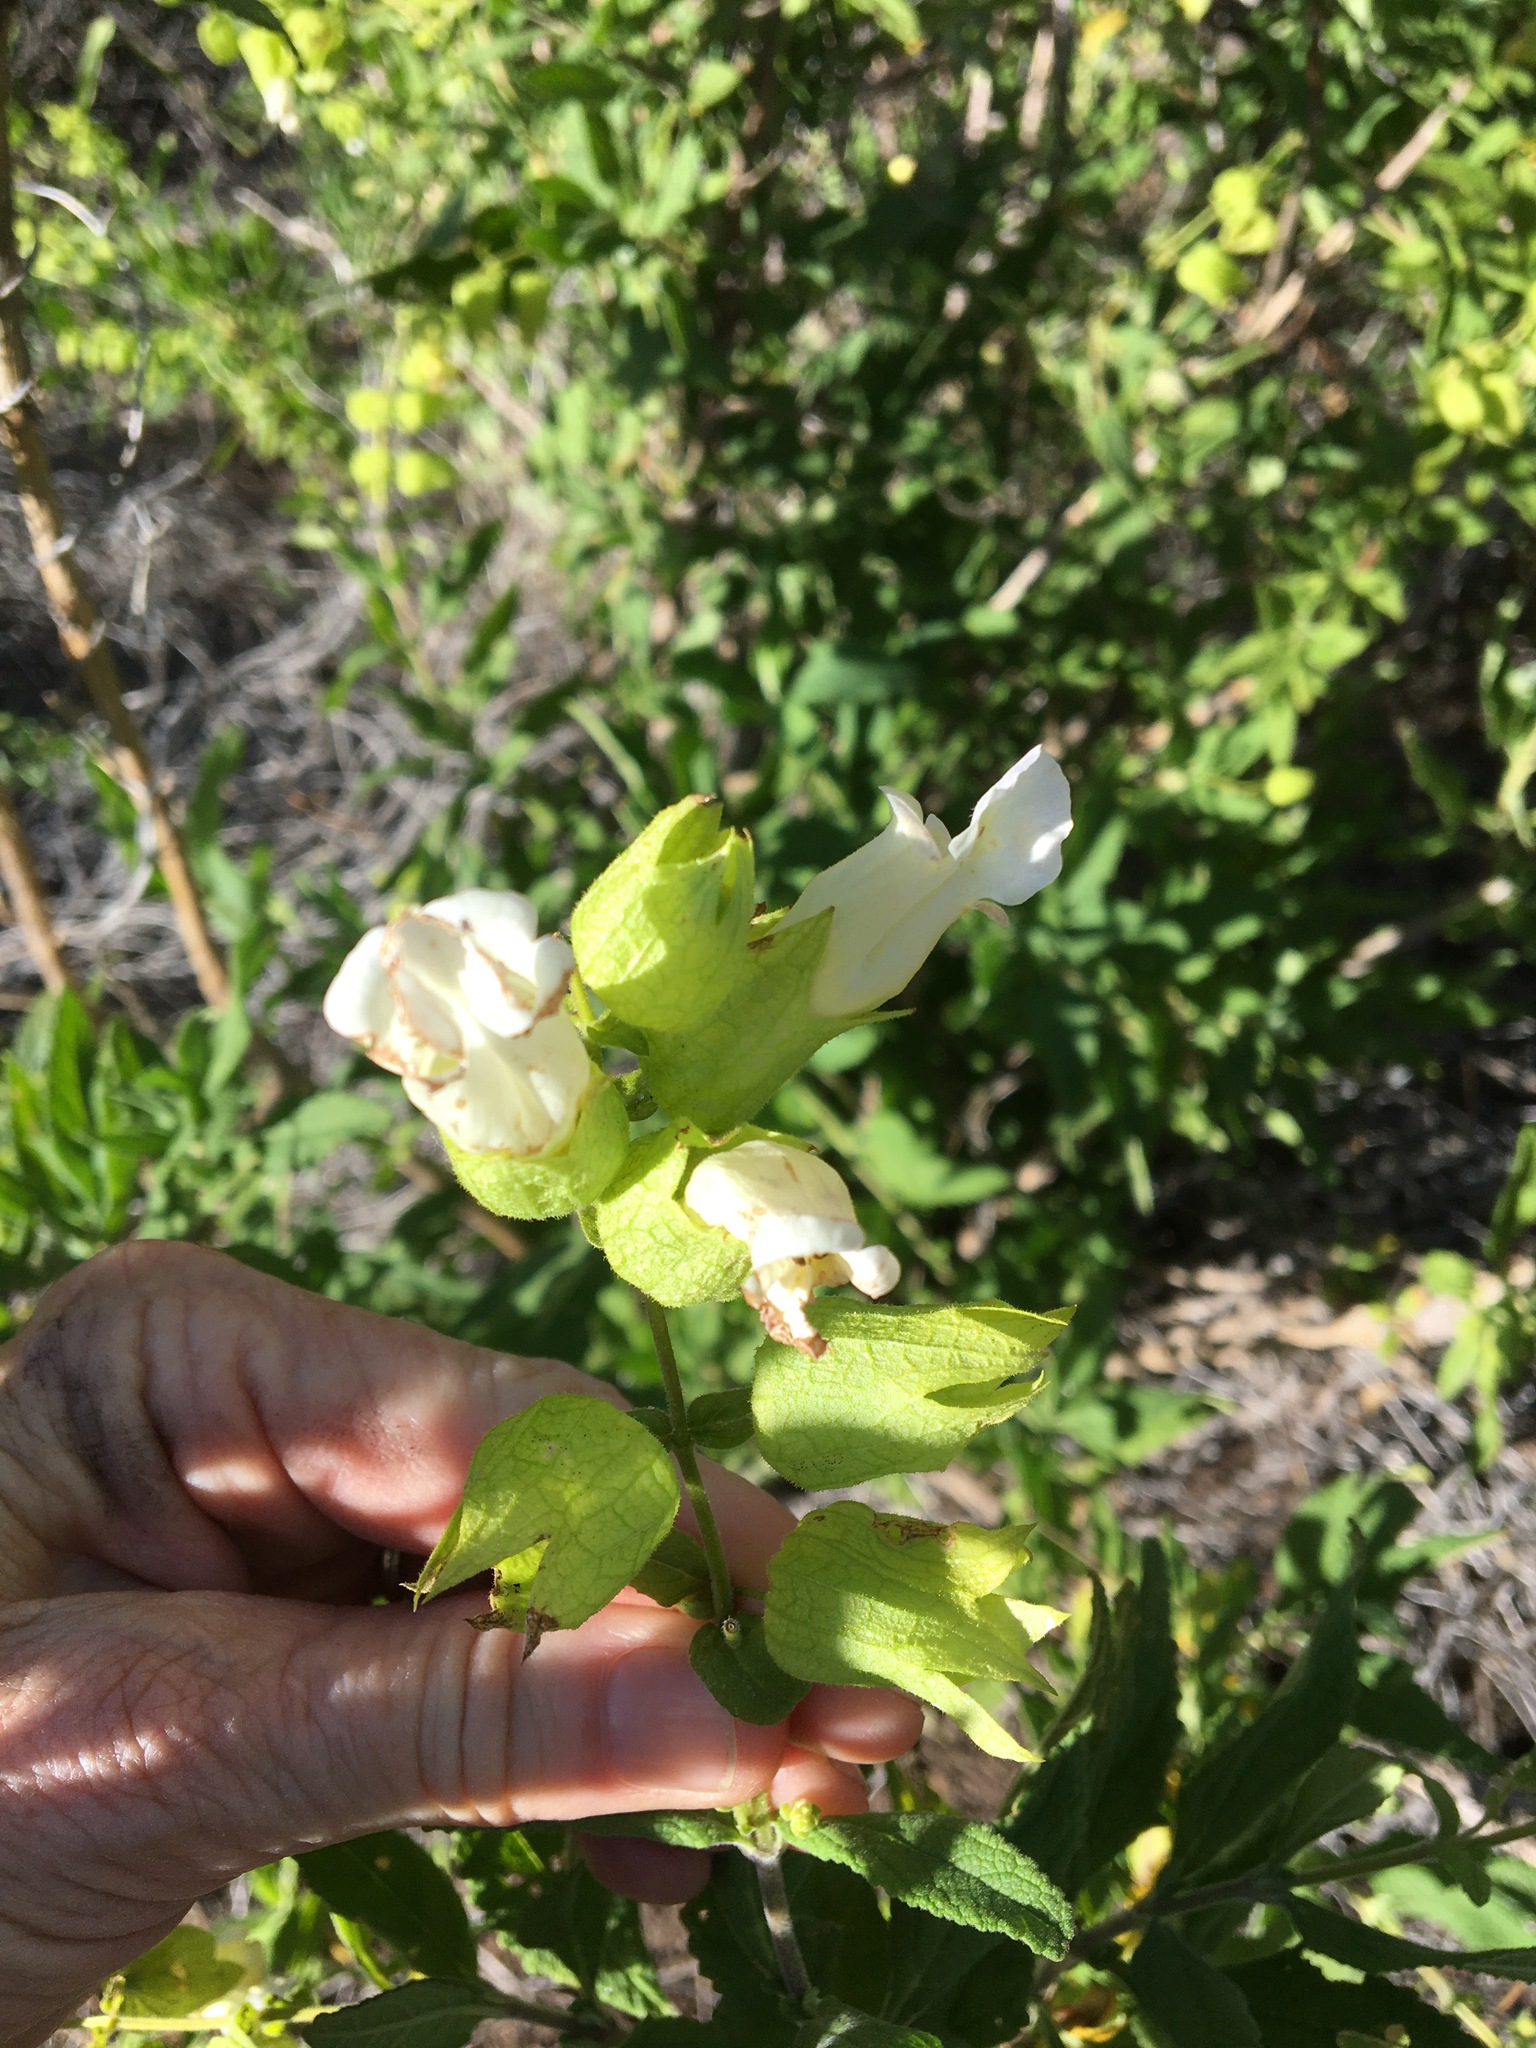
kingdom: Plantae
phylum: Tracheophyta
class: Magnoliopsida
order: Lamiales
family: Lamiaceae
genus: Lepechinia
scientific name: Lepechinia calycina
